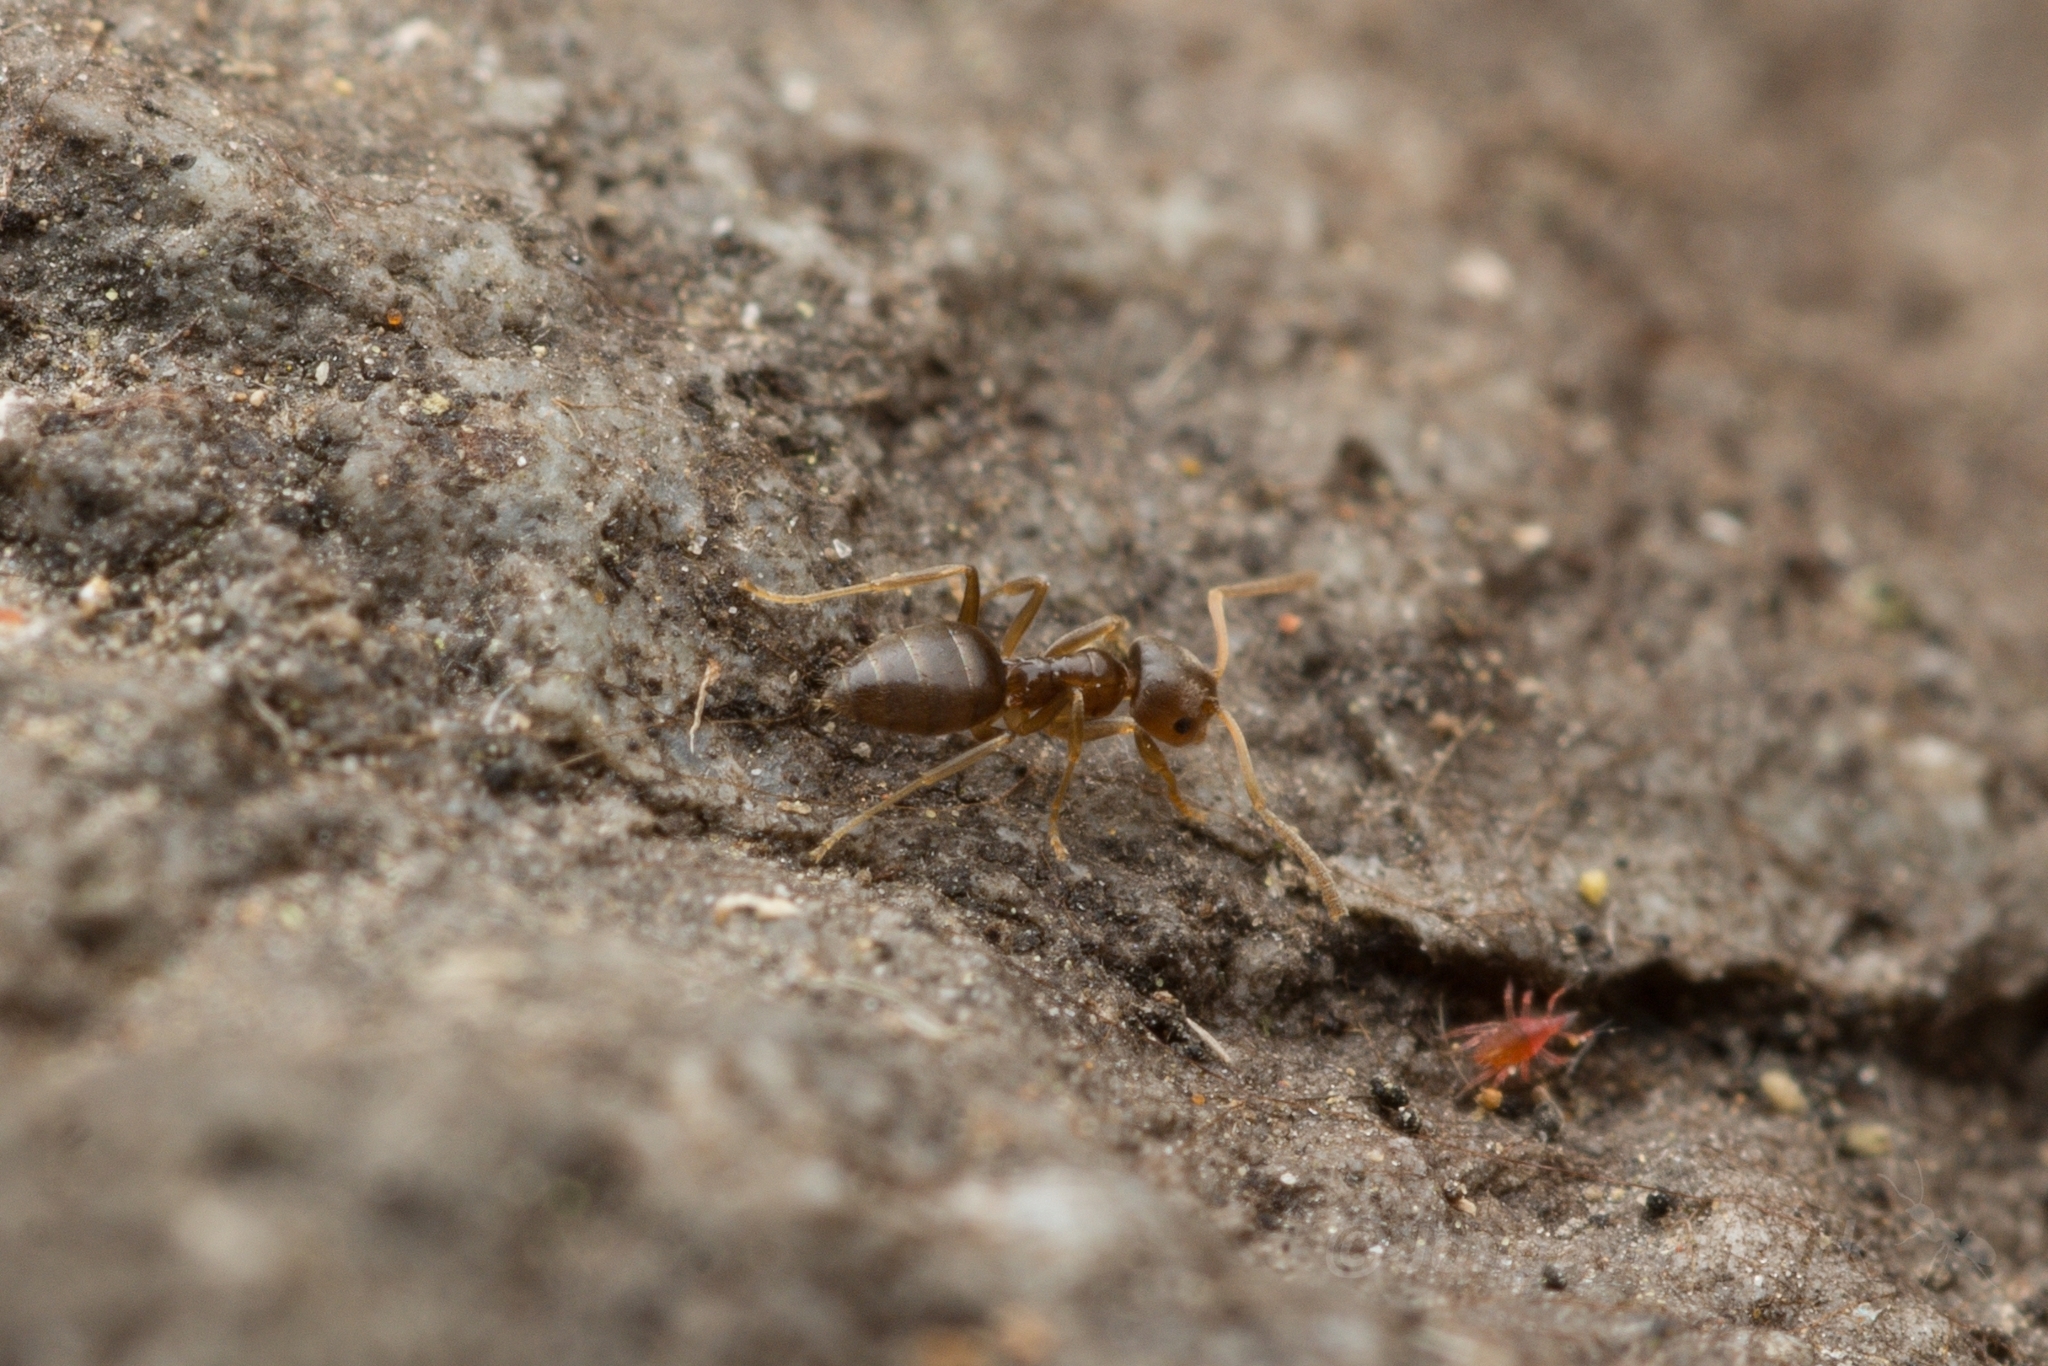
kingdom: Animalia
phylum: Arthropoda
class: Insecta
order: Hymenoptera
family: Formicidae
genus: Paraparatrechina
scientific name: Paraparatrechina
